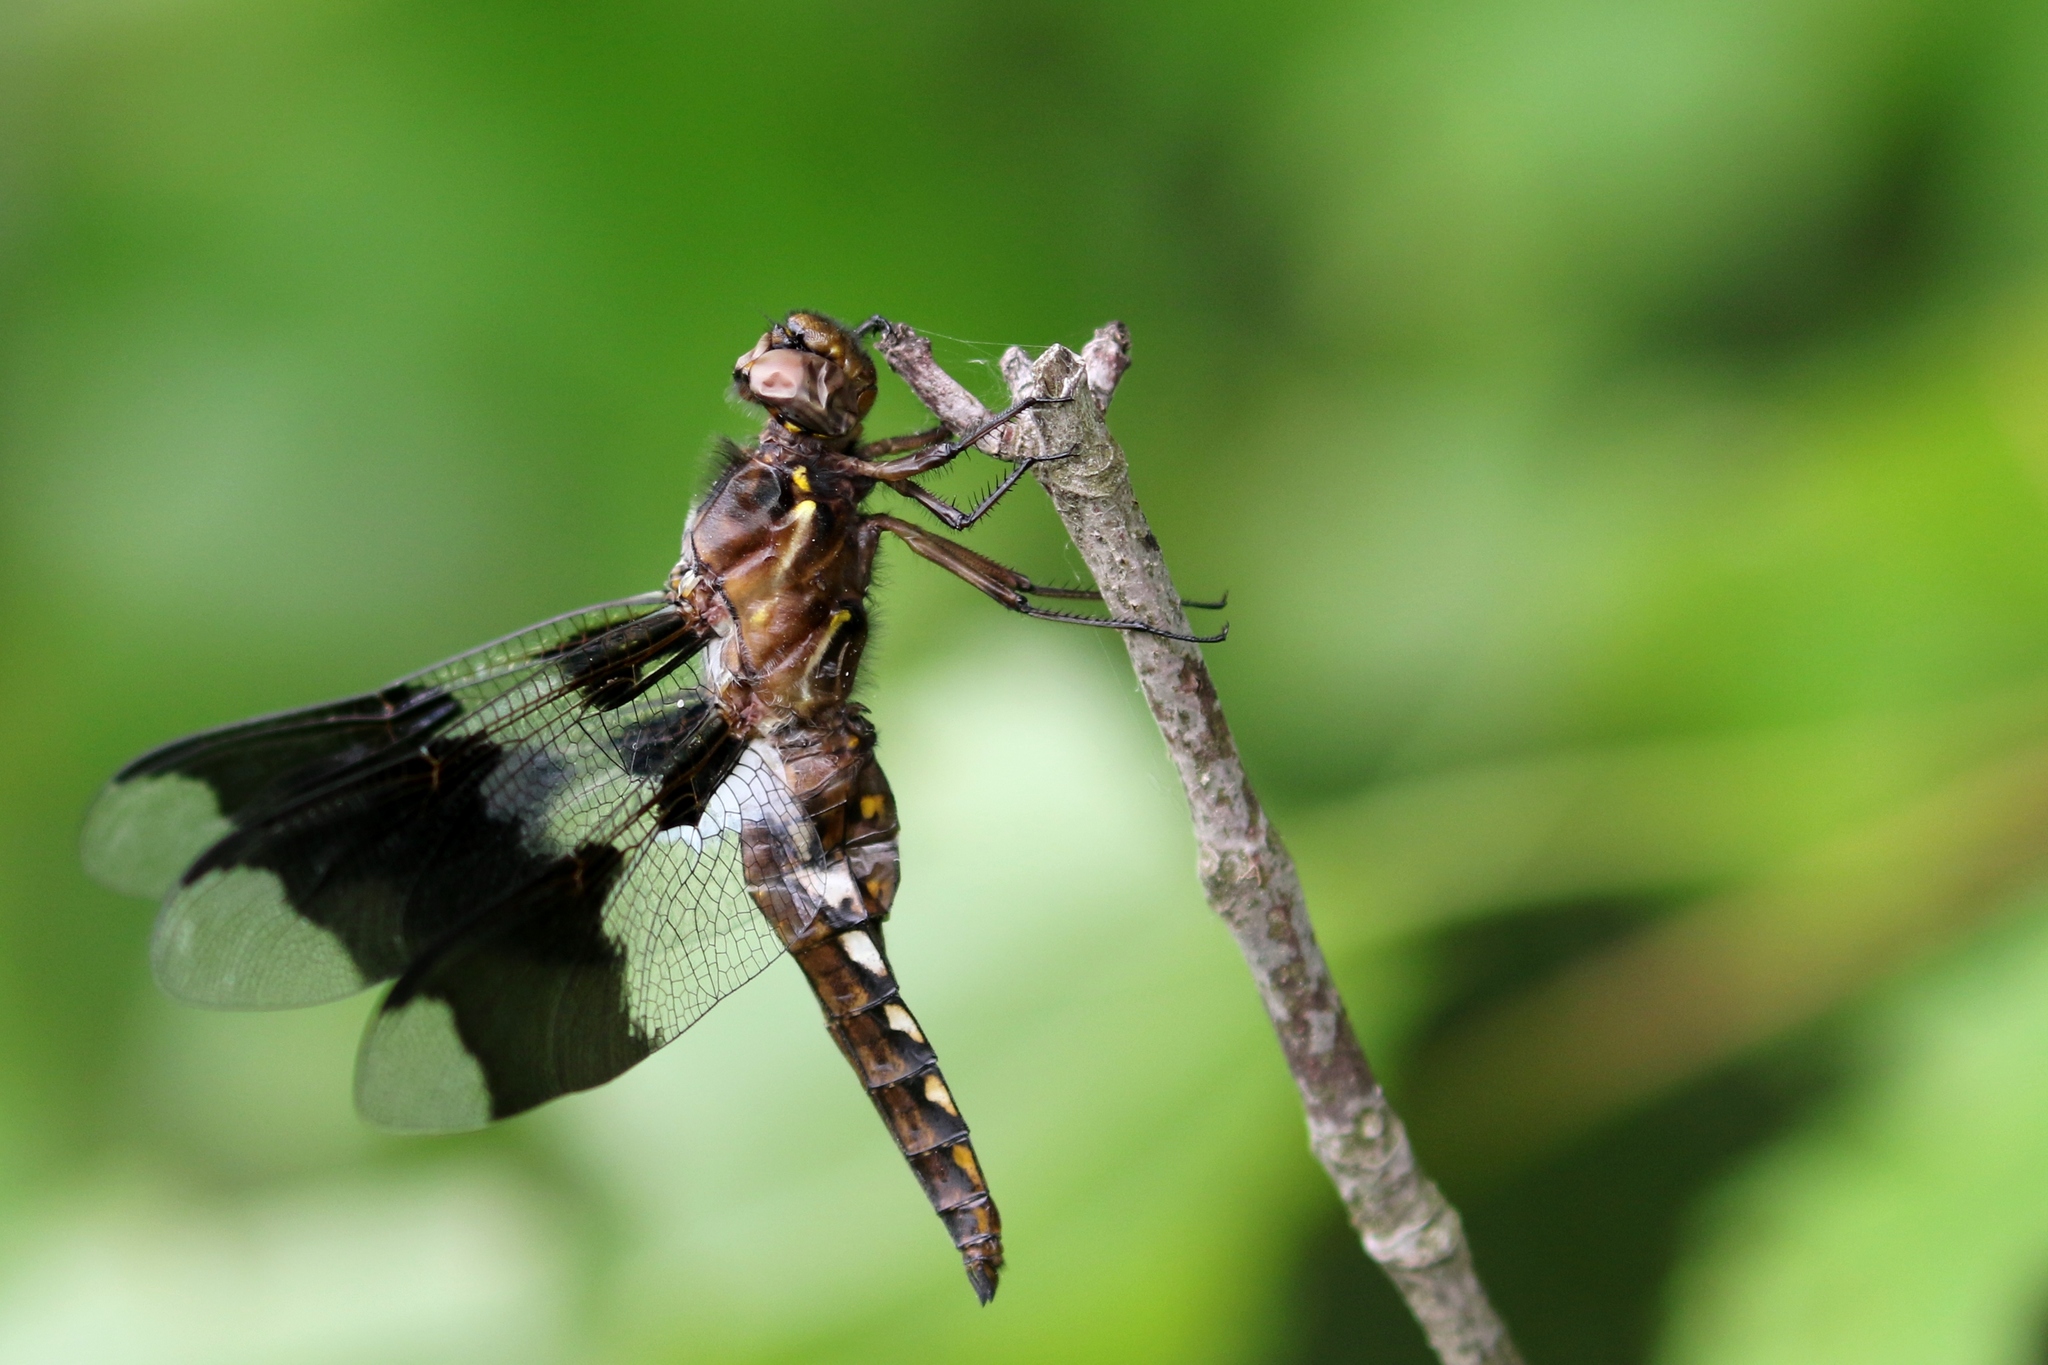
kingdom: Animalia
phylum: Arthropoda
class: Insecta
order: Odonata
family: Libellulidae
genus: Plathemis
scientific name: Plathemis lydia
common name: Common whitetail
